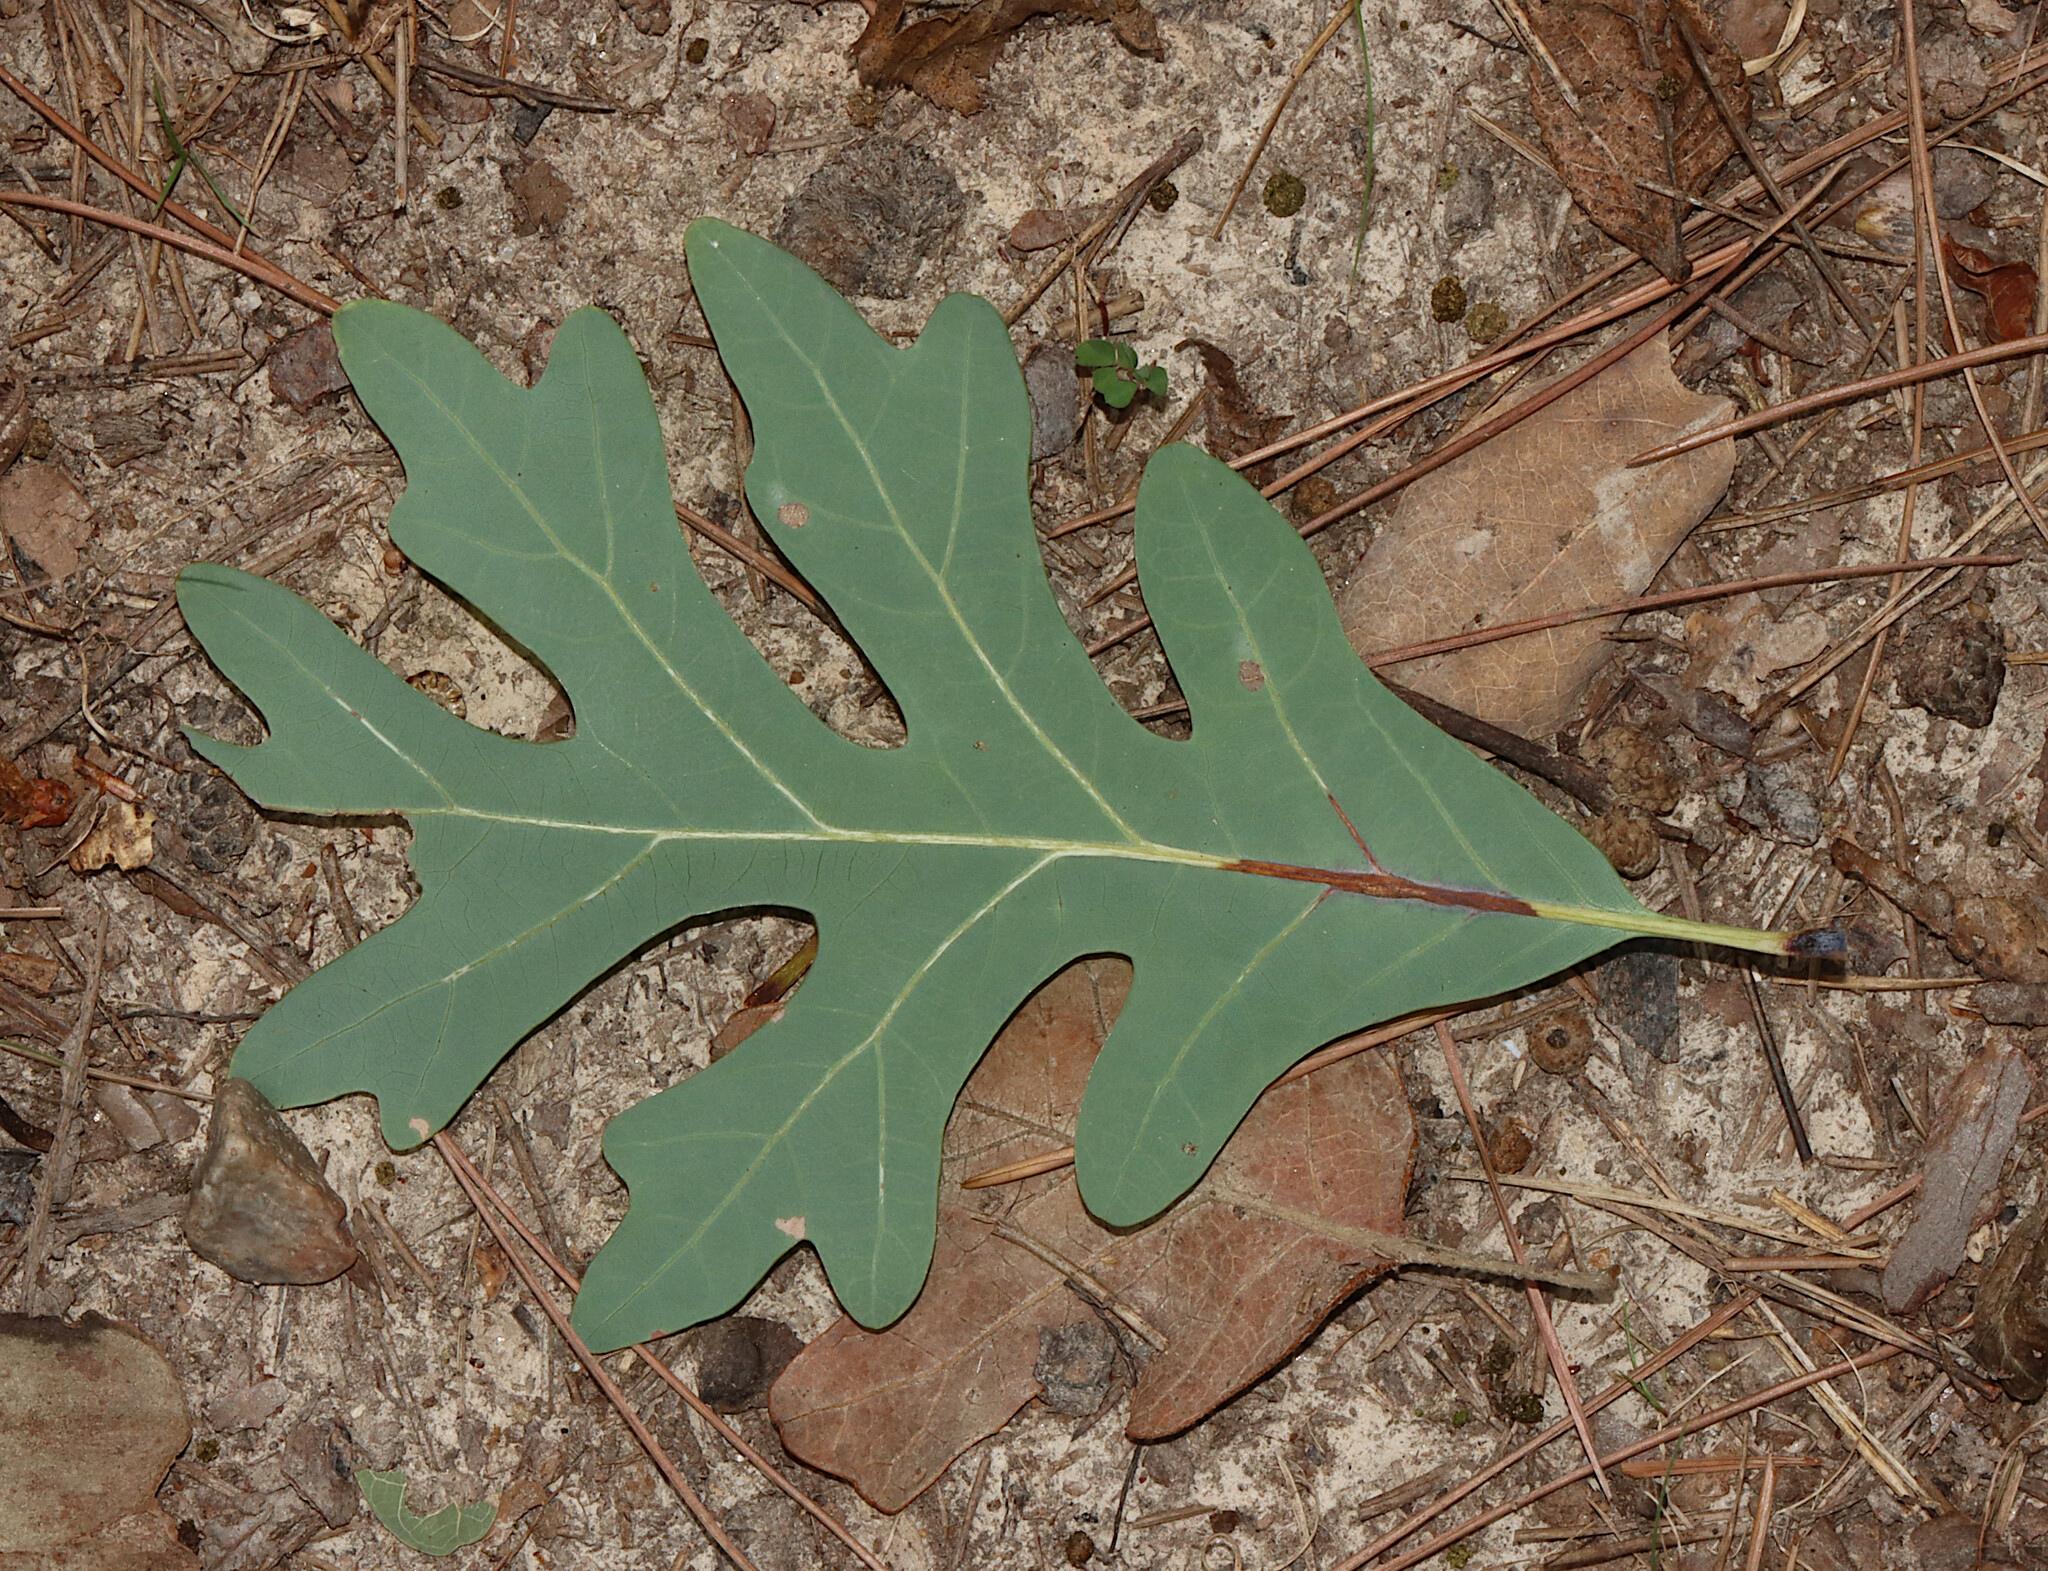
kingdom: Plantae
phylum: Tracheophyta
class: Magnoliopsida
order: Fagales
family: Fagaceae
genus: Quercus
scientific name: Quercus alba
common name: White oak
